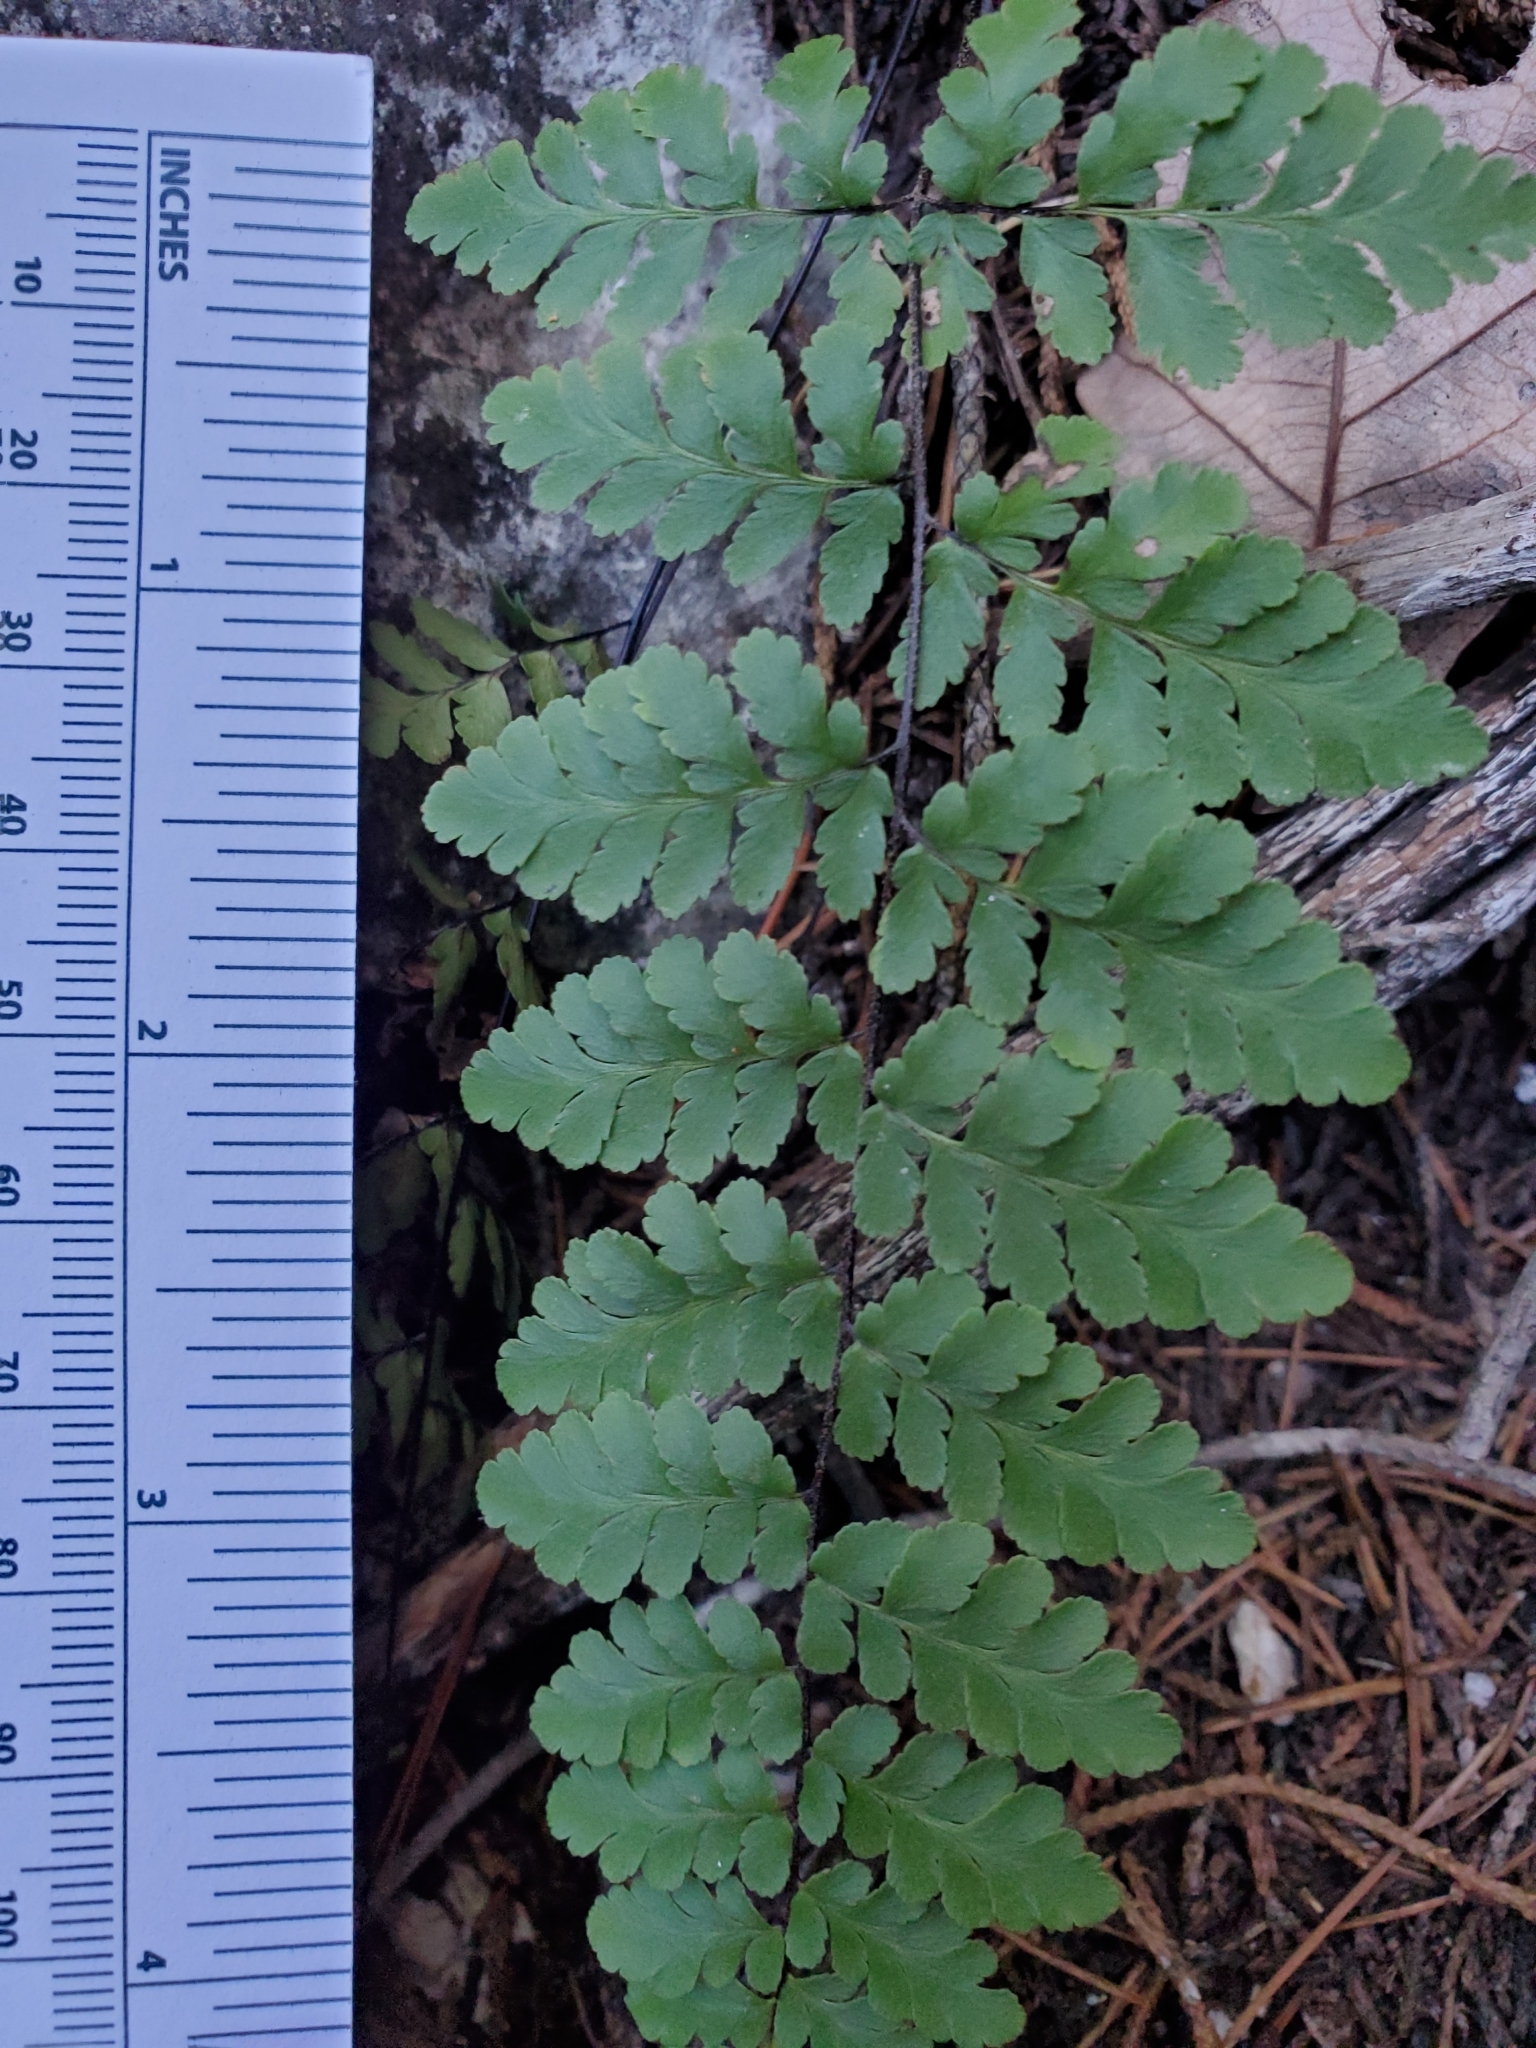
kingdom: Plantae
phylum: Tracheophyta
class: Polypodiopsida
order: Polypodiales
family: Pteridaceae
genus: Myriopteris
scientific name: Myriopteris alabamensis
